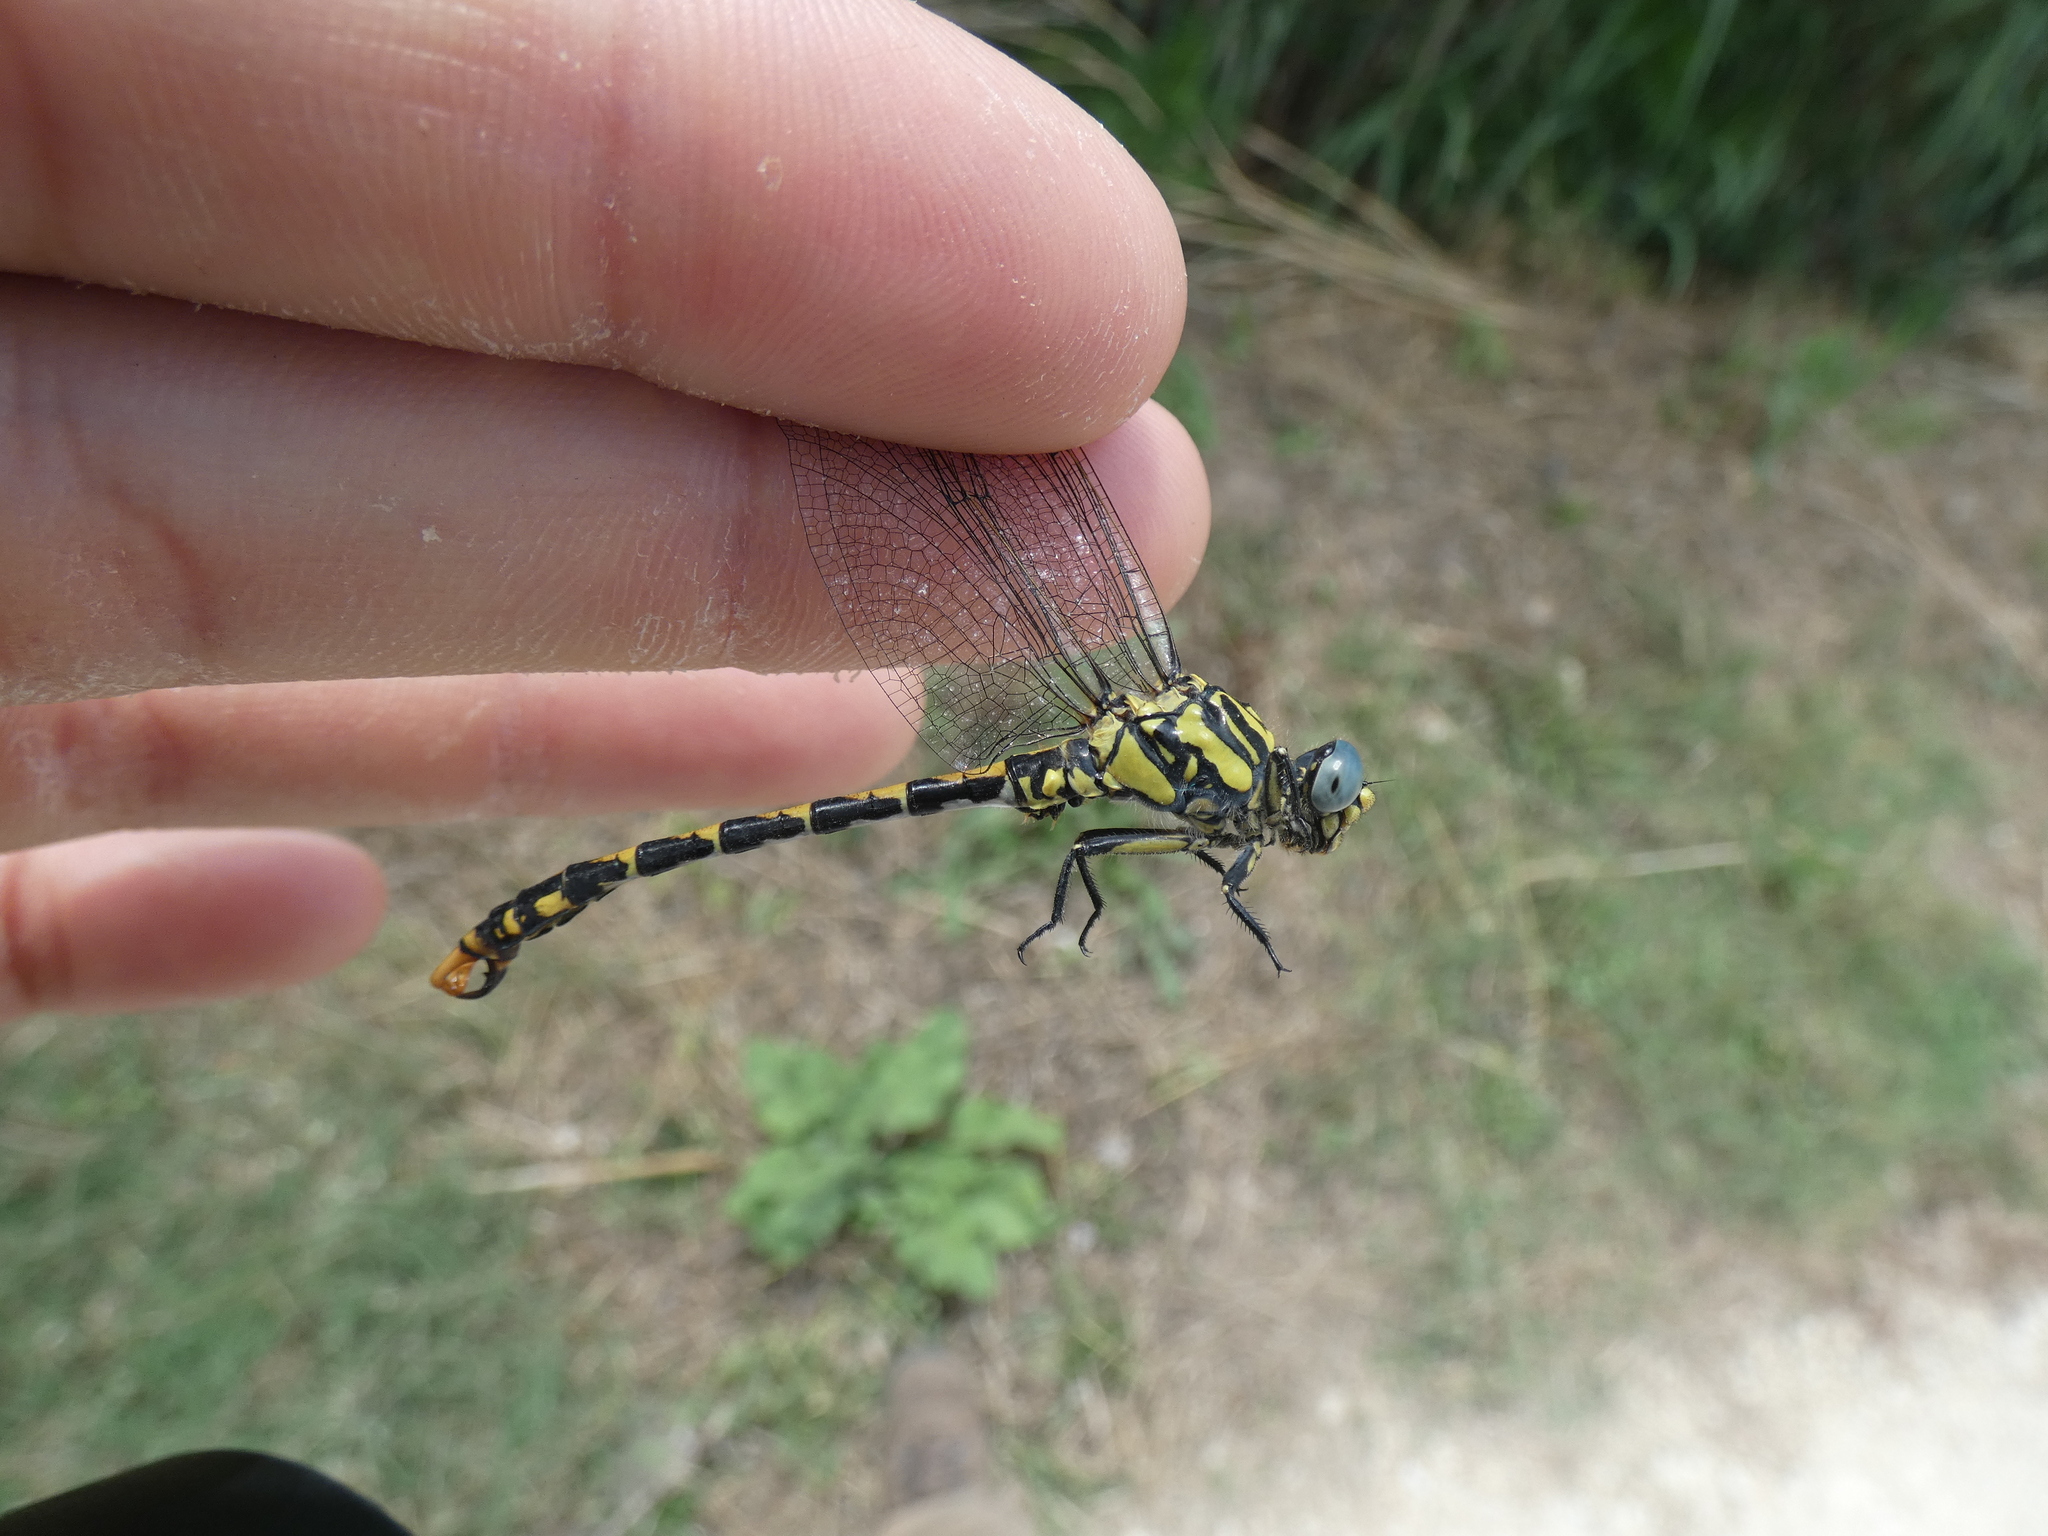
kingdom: Animalia
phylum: Arthropoda
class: Insecta
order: Odonata
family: Gomphidae
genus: Onychogomphus
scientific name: Onychogomphus uncatus
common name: Large pincertail
